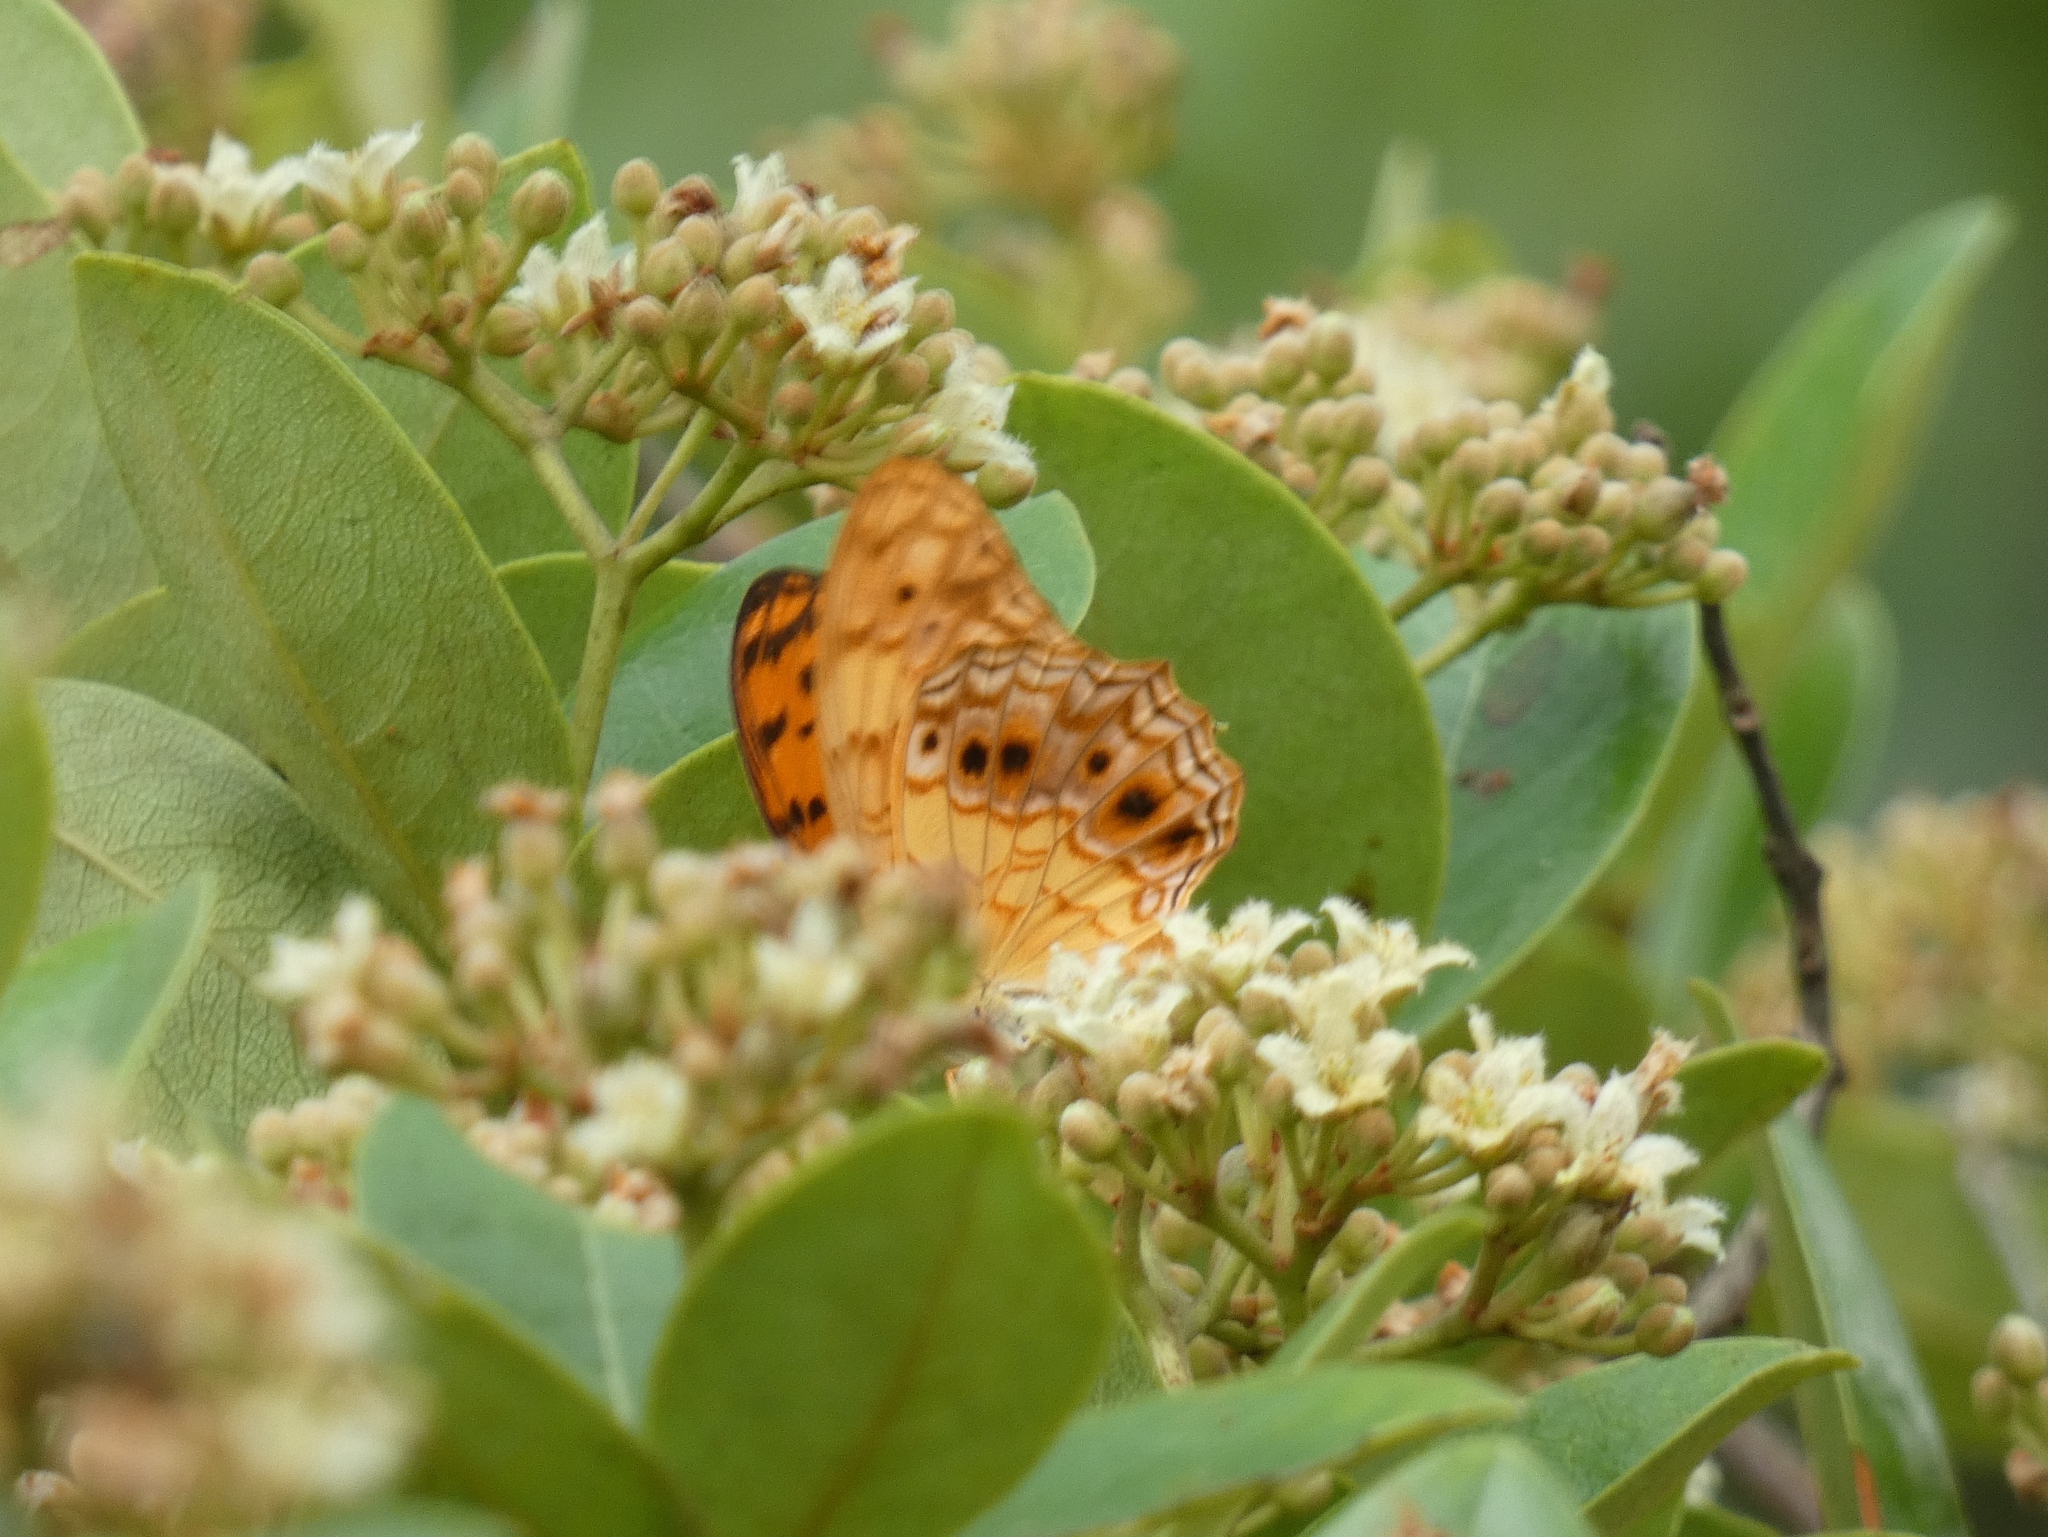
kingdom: Animalia
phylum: Arthropoda
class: Insecta
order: Lepidoptera
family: Nymphalidae
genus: Phalanta
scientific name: Phalanta columbina
